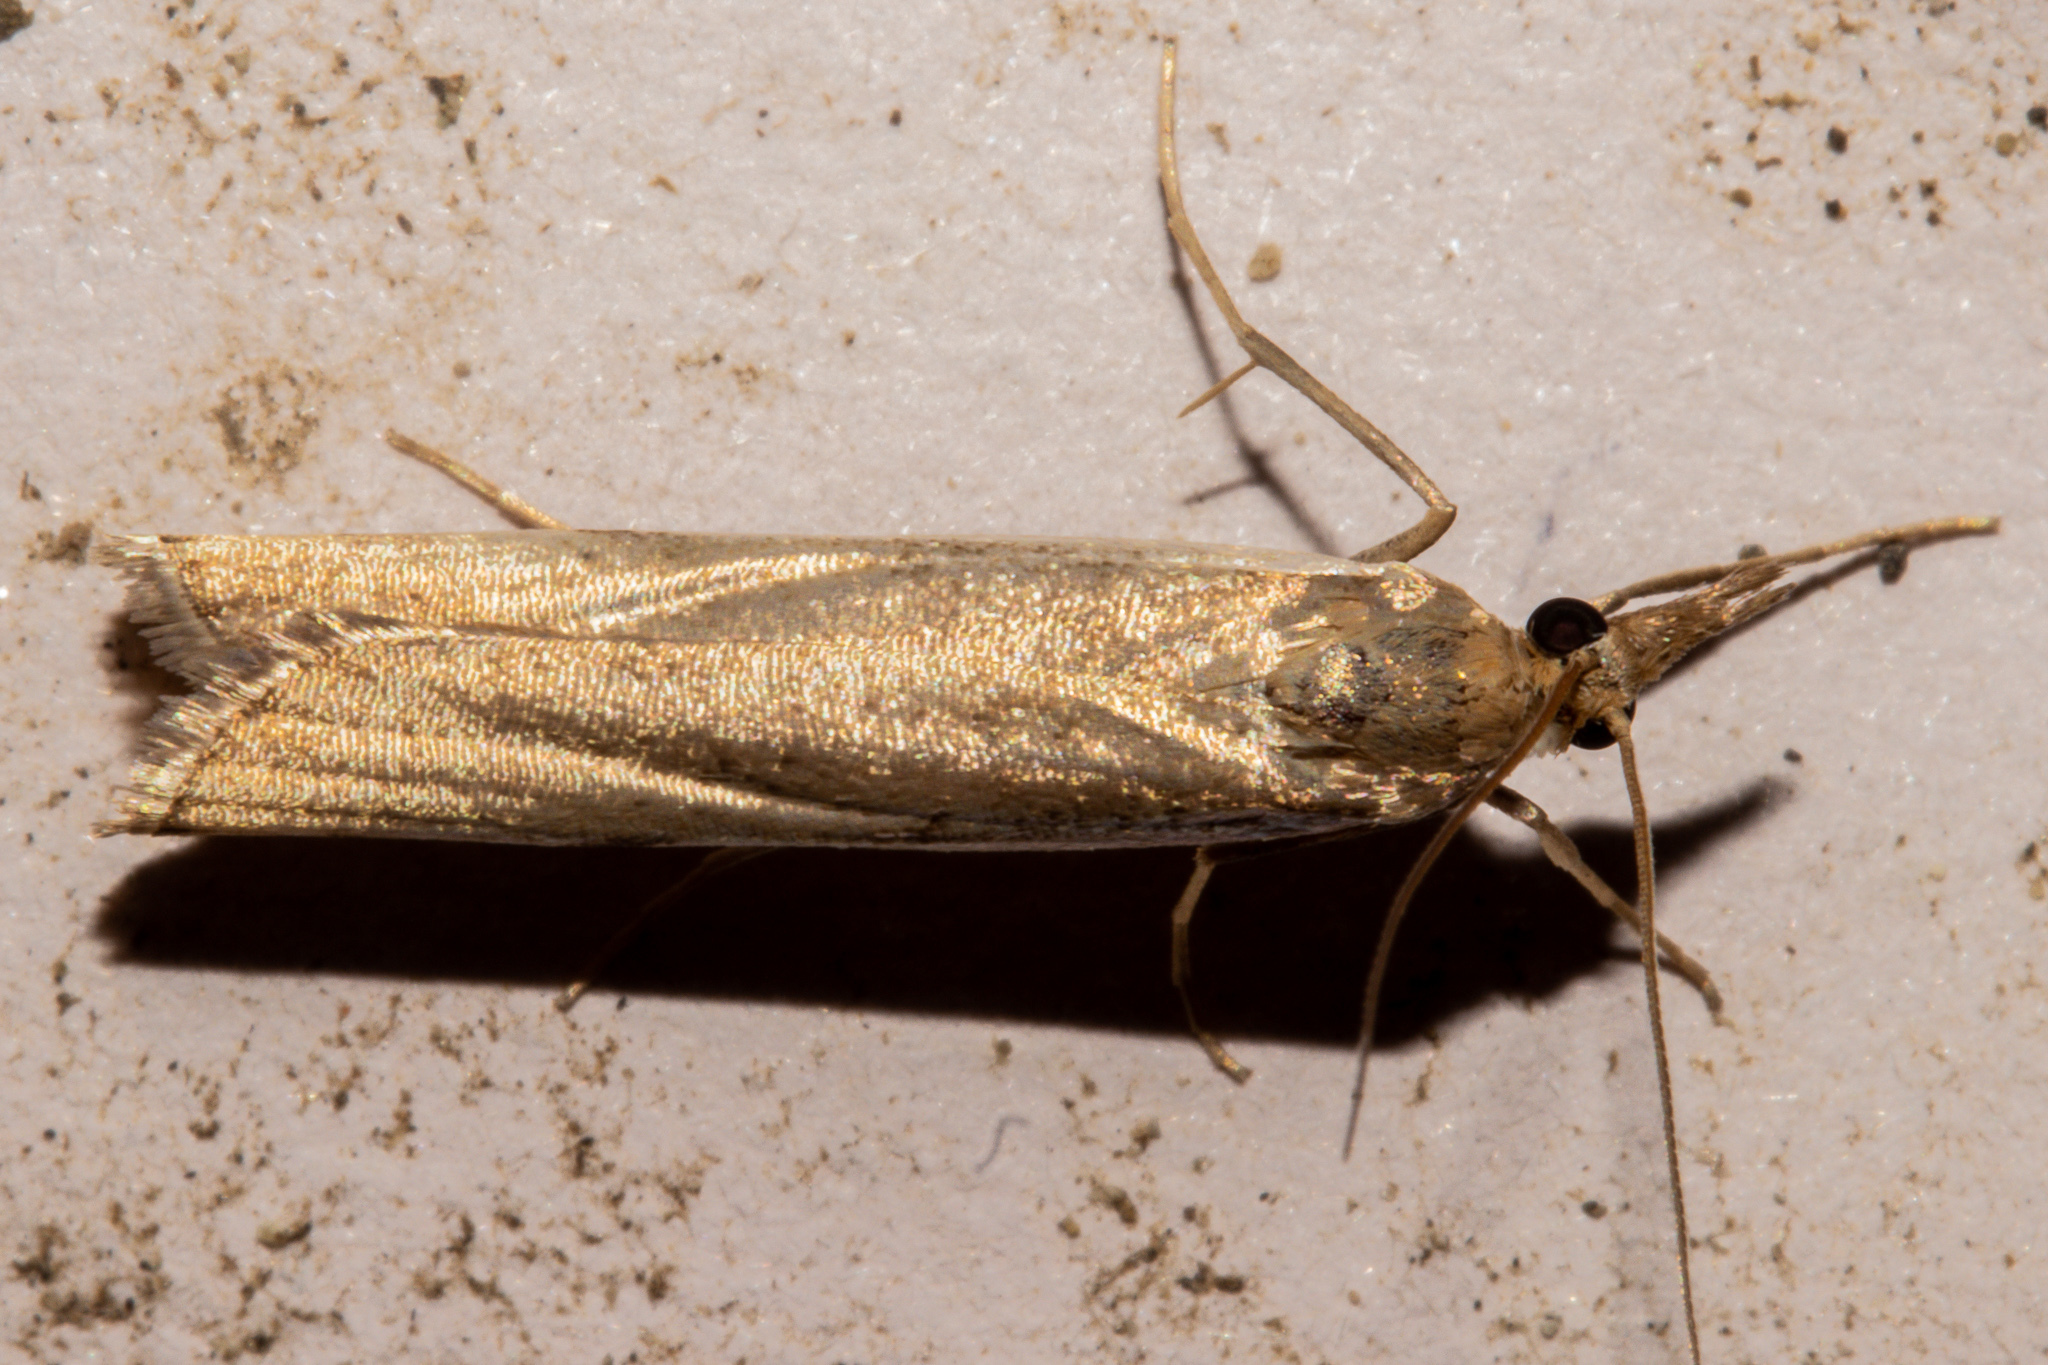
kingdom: Animalia
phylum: Arthropoda
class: Insecta
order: Lepidoptera
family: Crambidae
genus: Orocrambus
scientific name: Orocrambus flexuosellus
